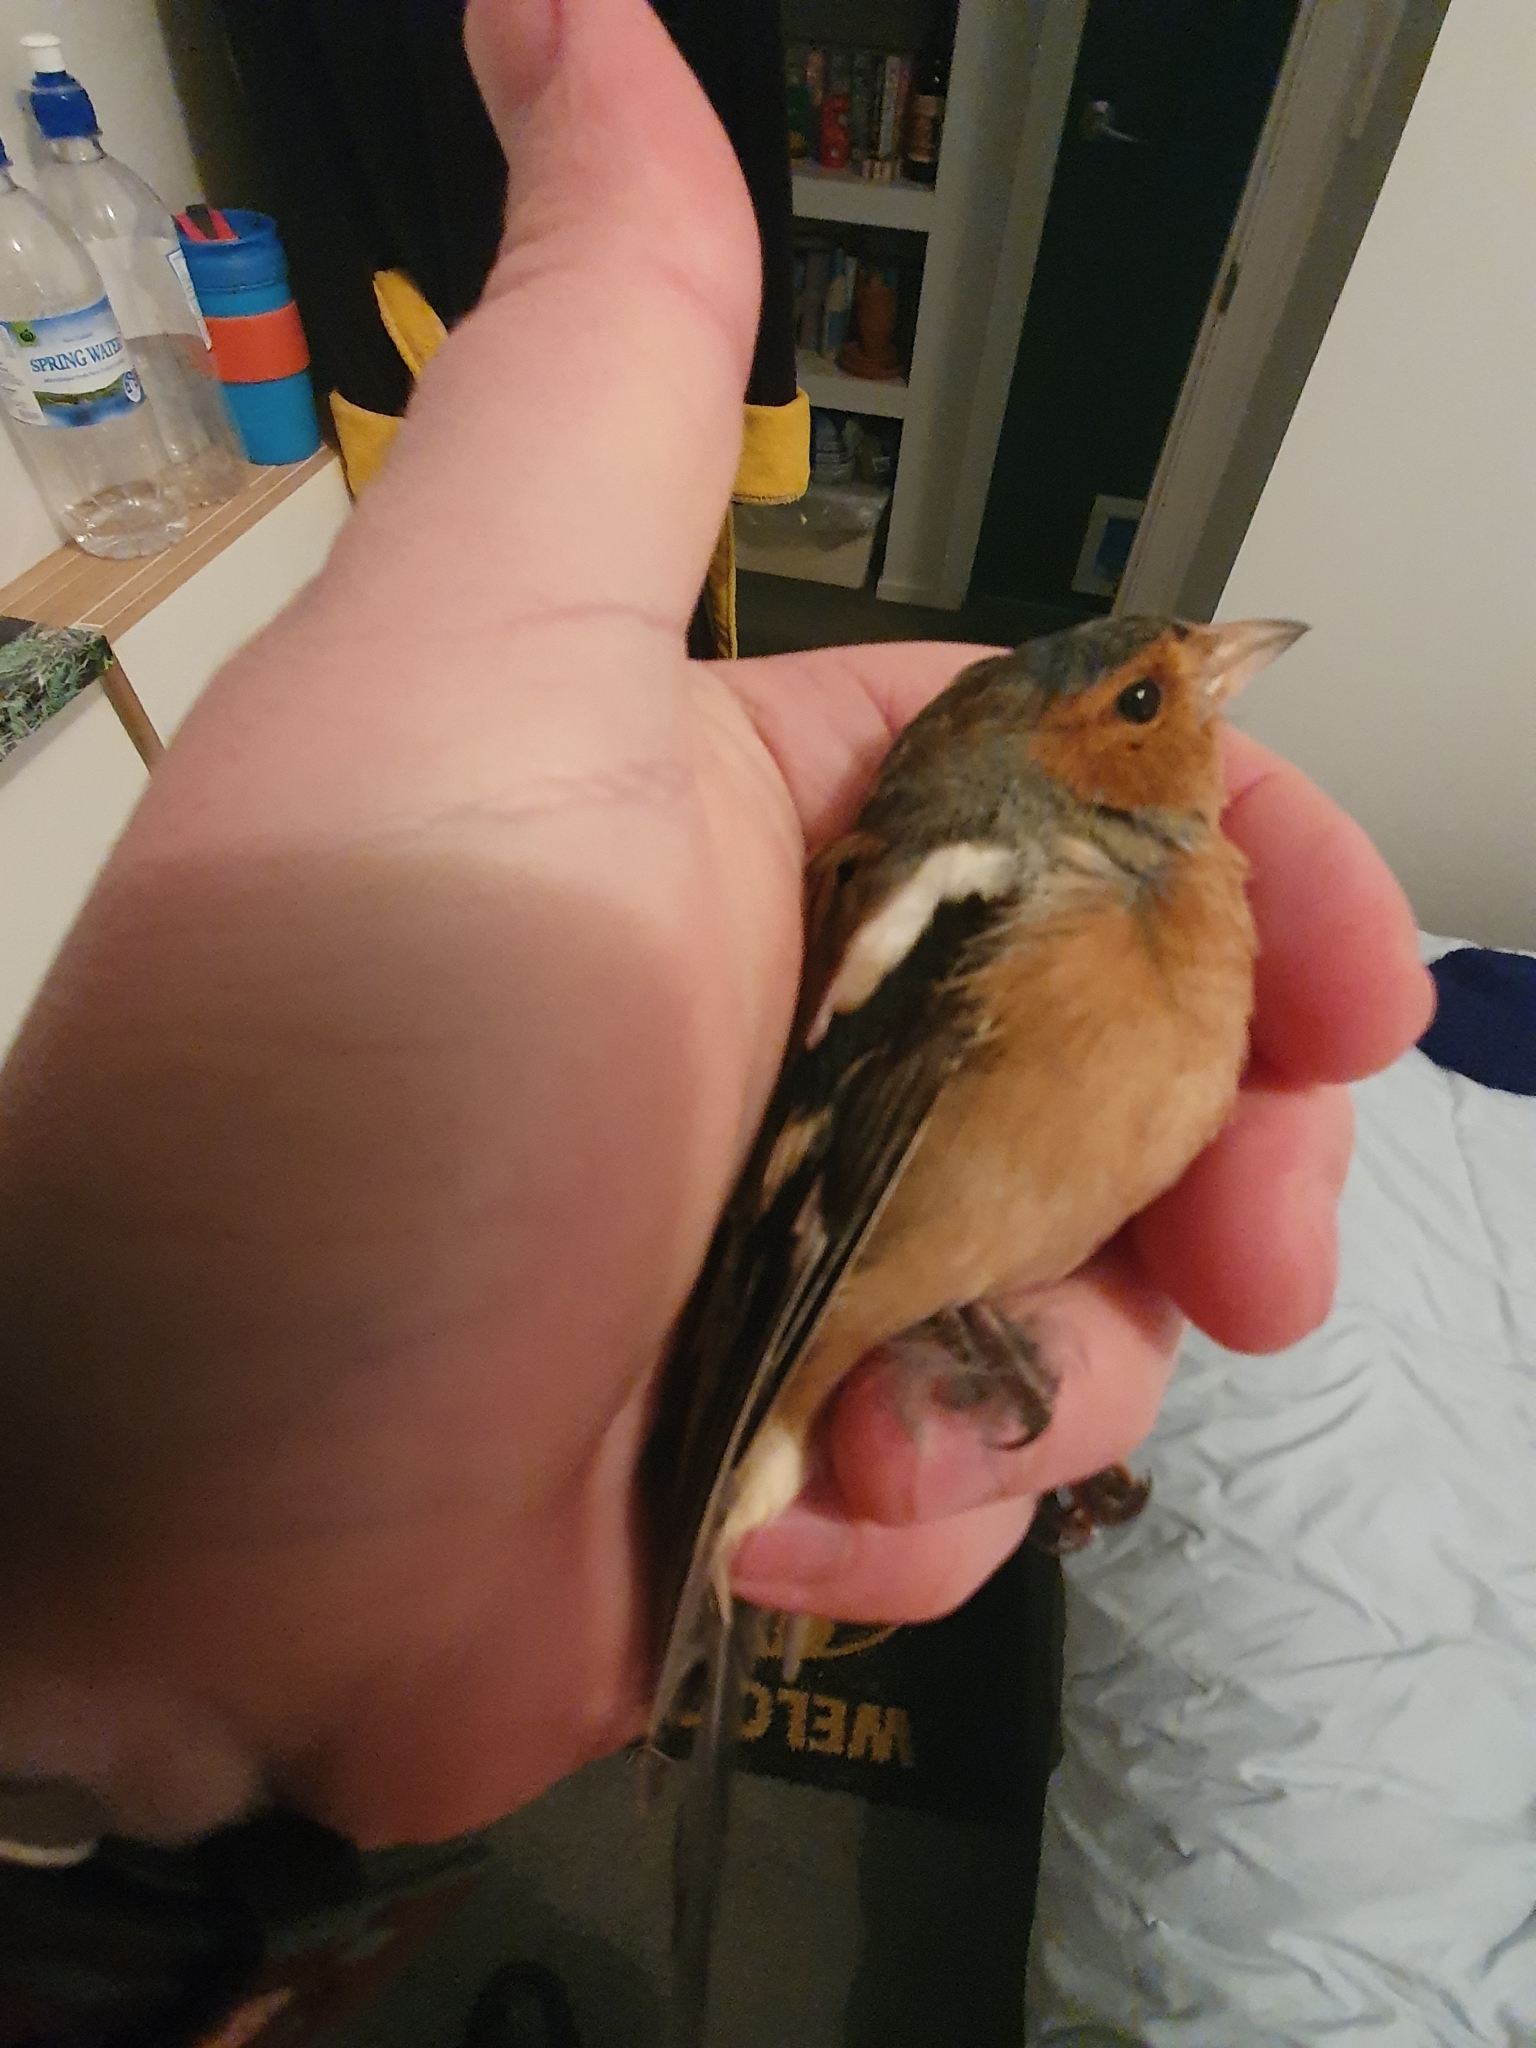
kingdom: Animalia
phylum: Chordata
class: Aves
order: Passeriformes
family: Fringillidae
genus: Fringilla
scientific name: Fringilla coelebs
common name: Common chaffinch
